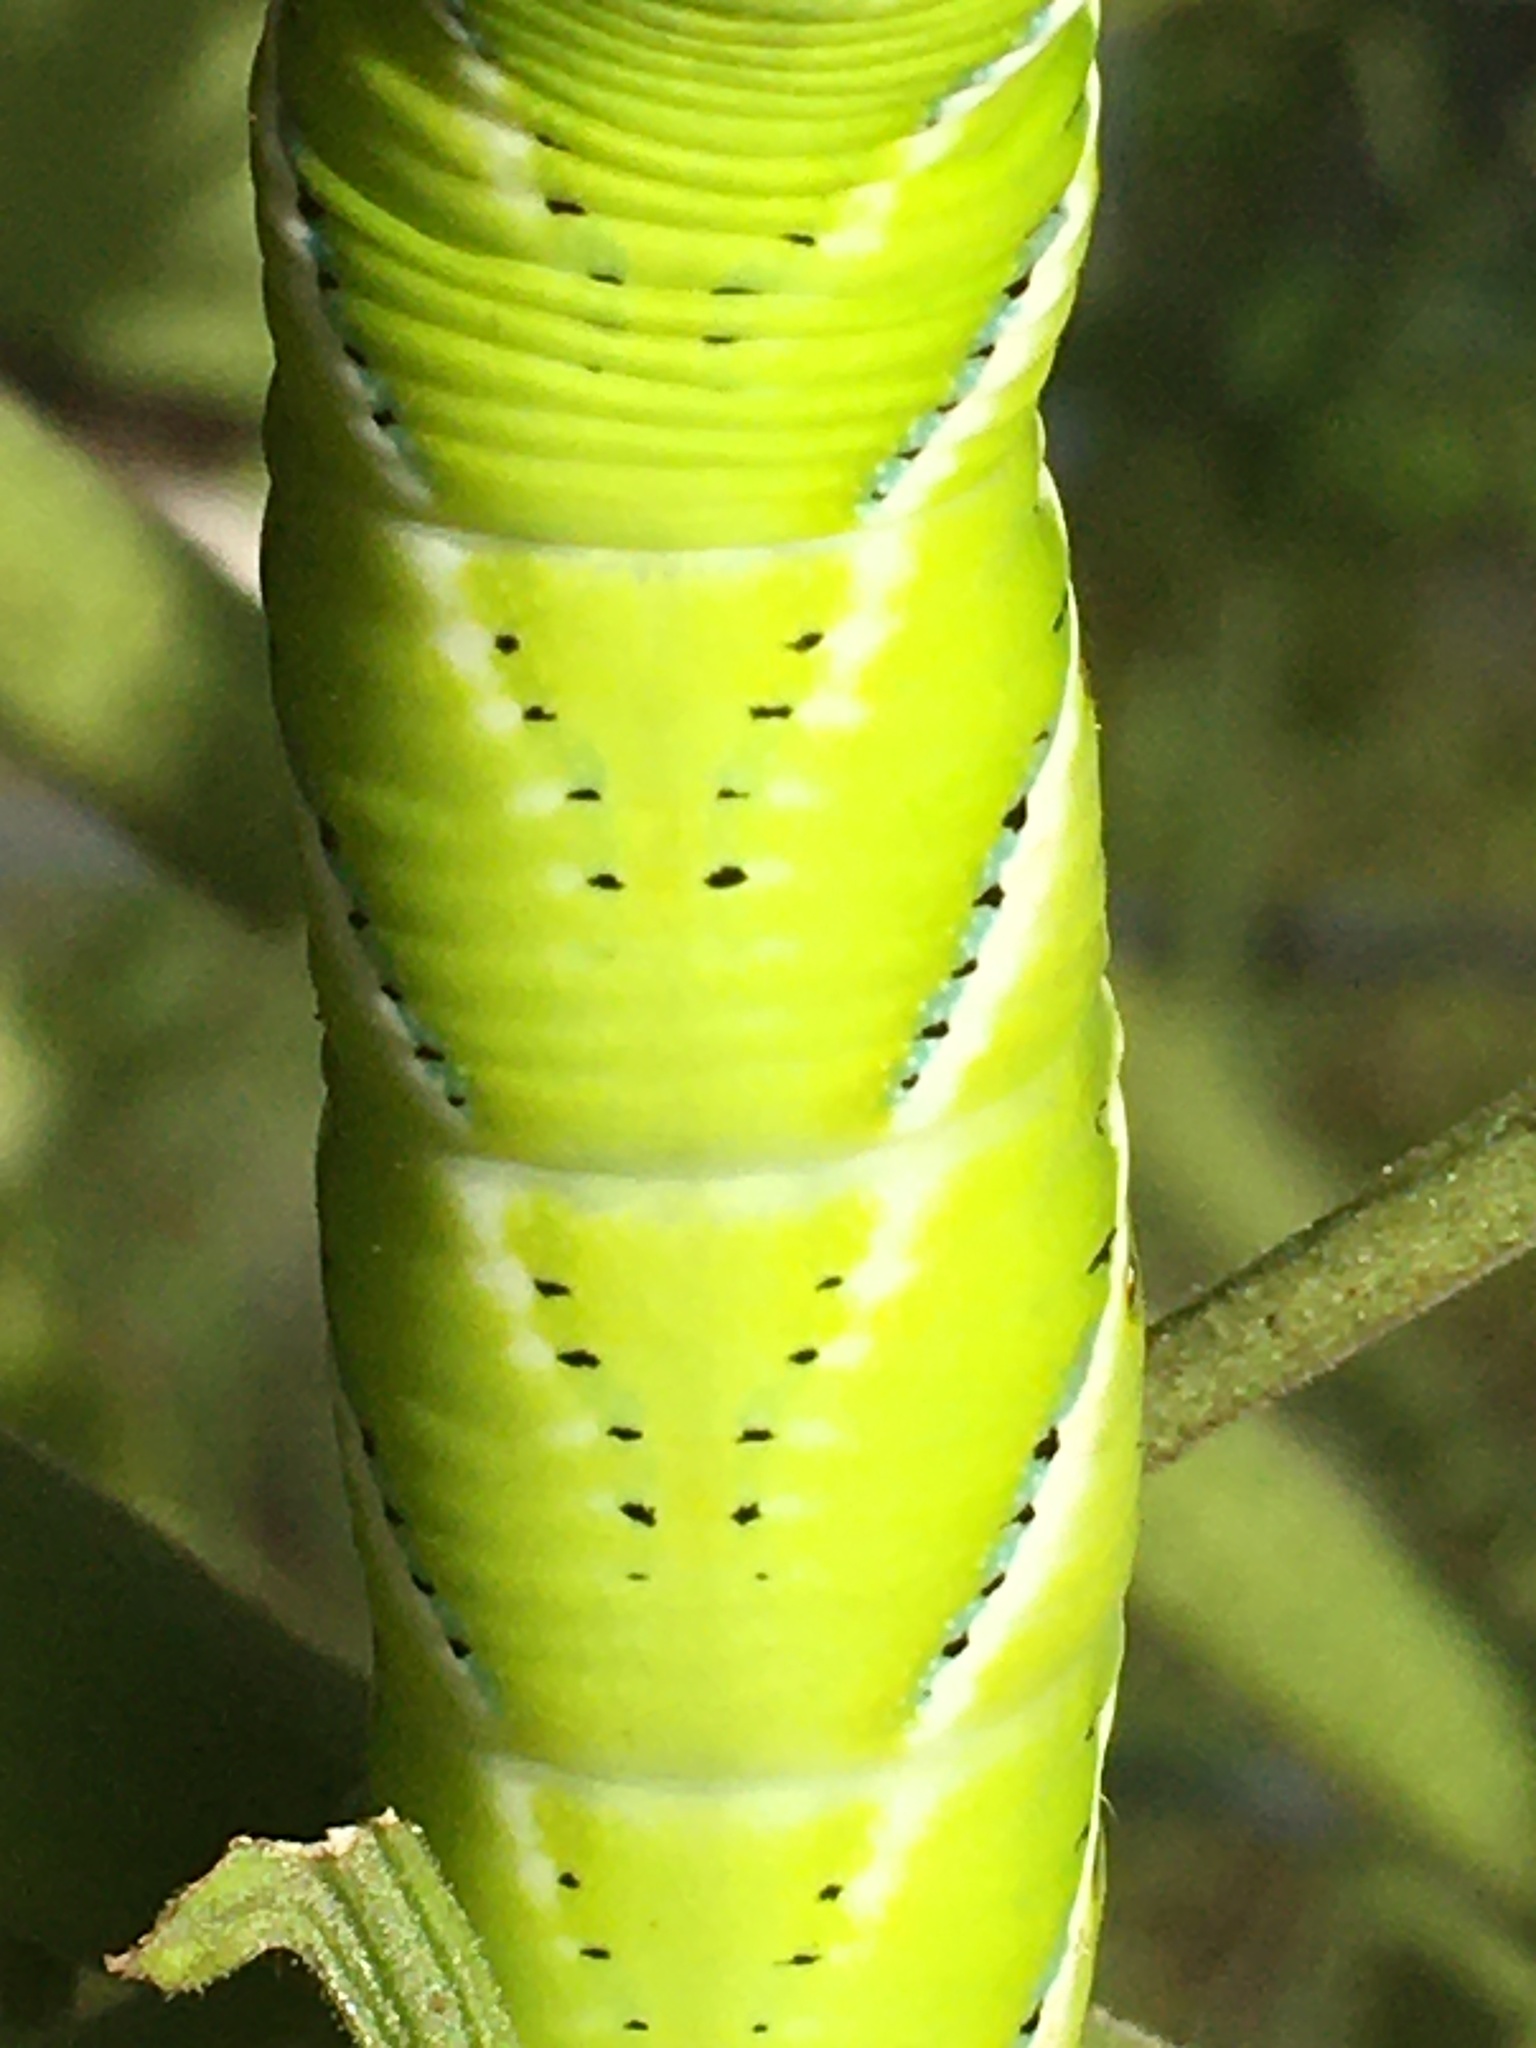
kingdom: Animalia
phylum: Arthropoda
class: Insecta
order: Lepidoptera
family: Sphingidae
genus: Manduca
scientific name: Manduca sexta
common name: Carolina sphinx
